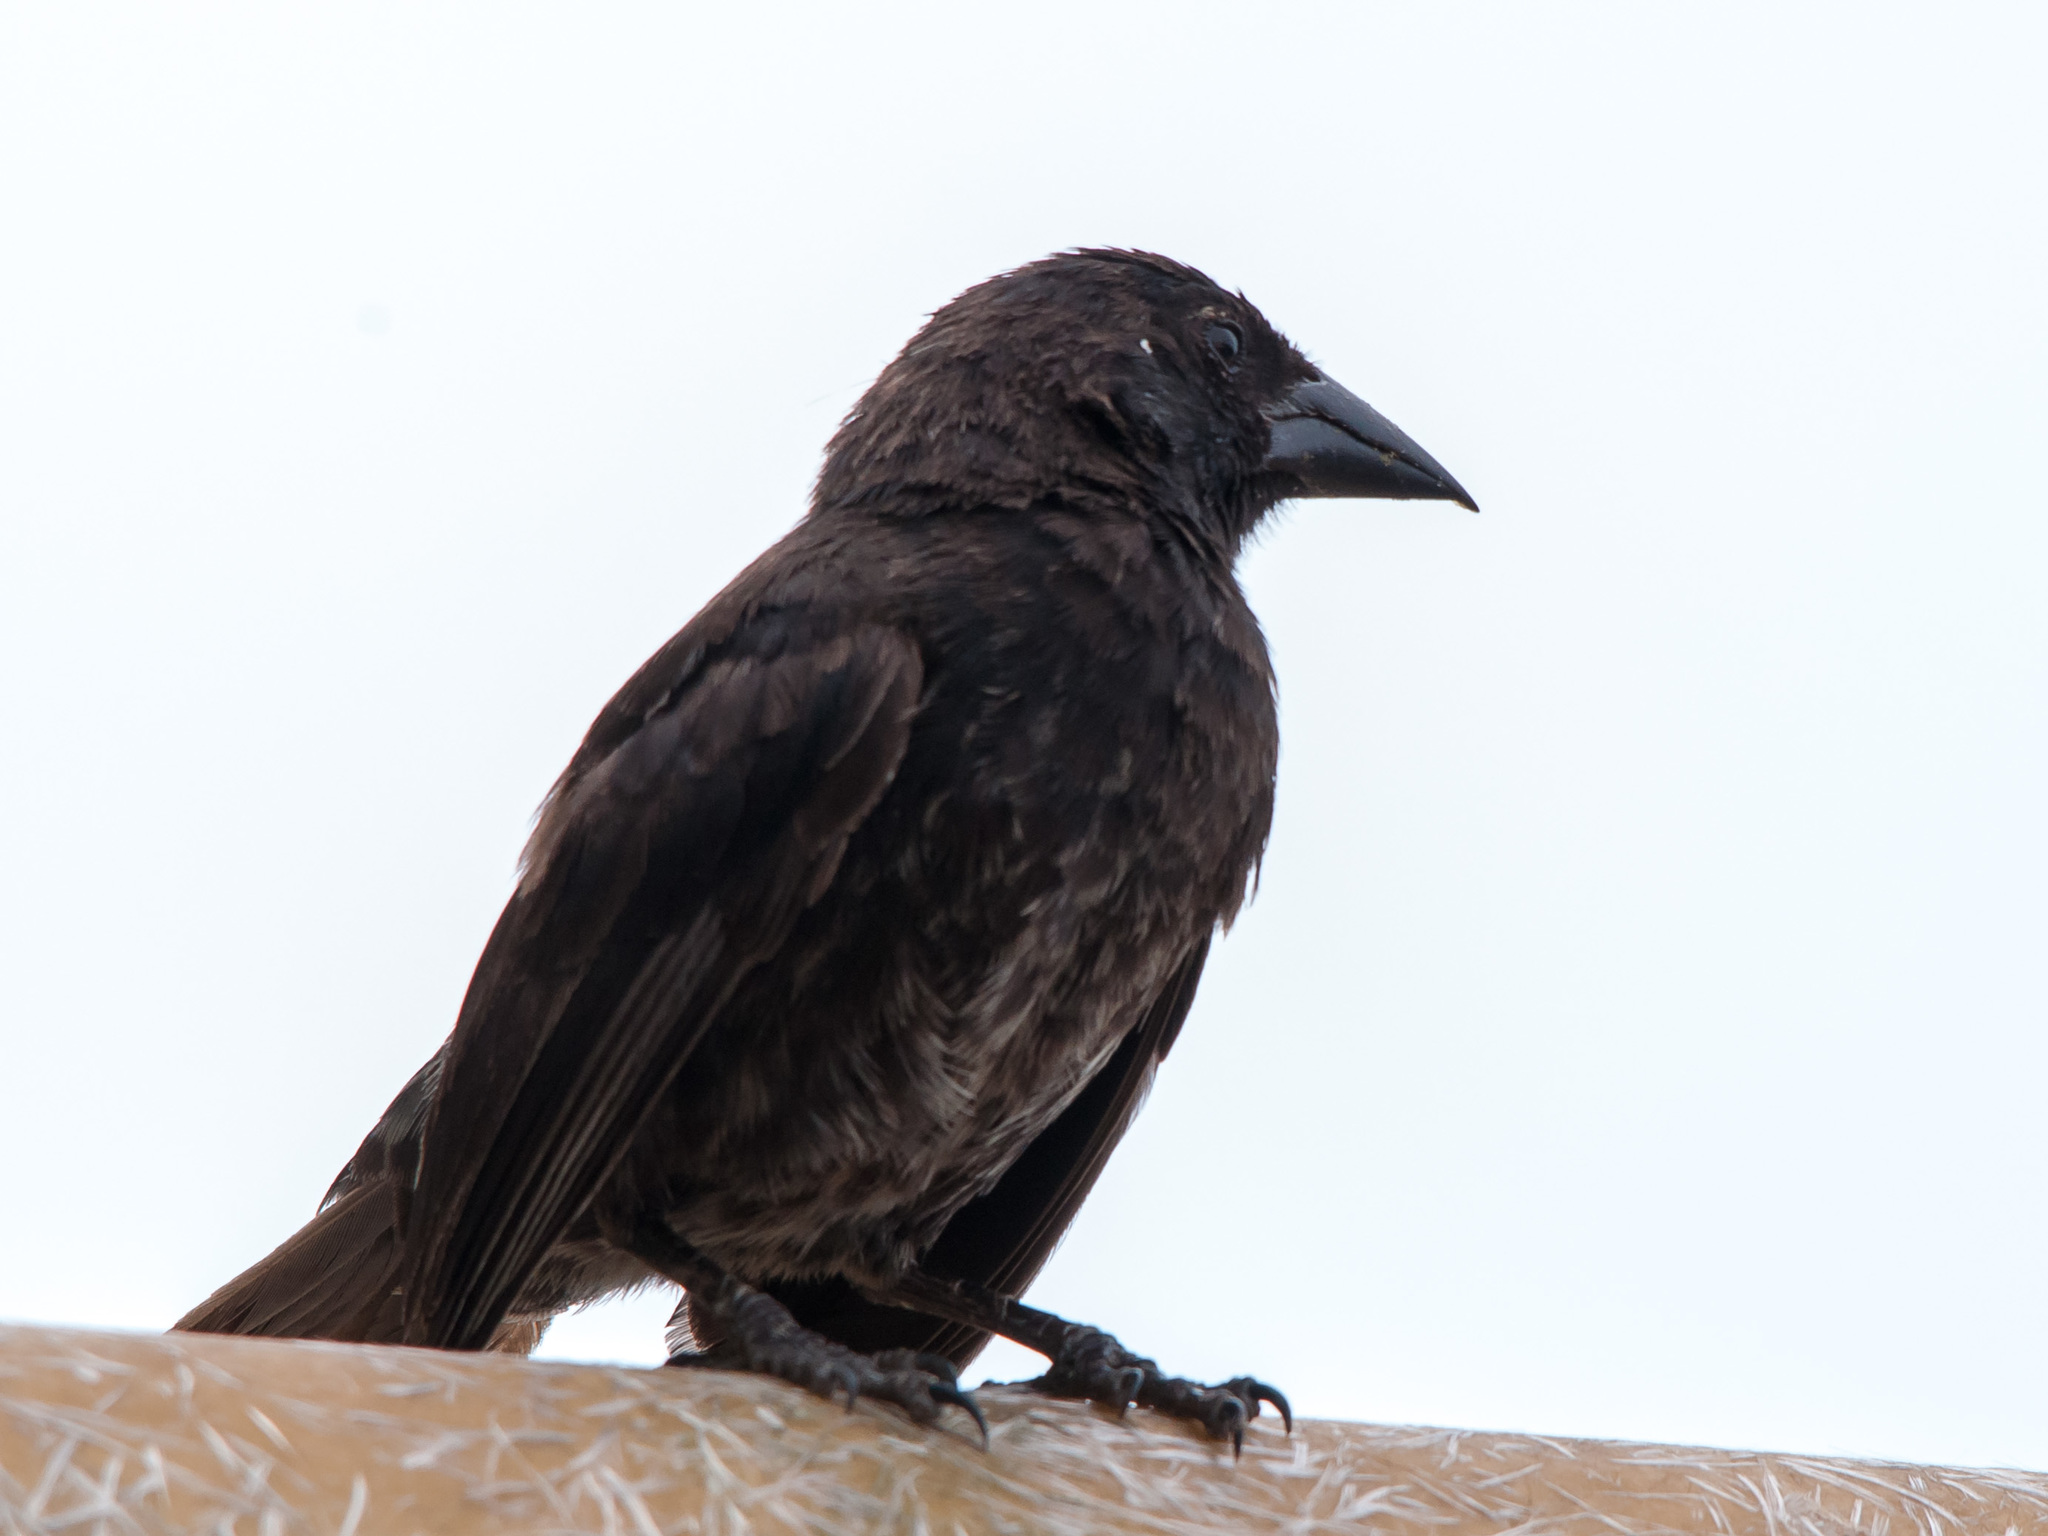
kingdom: Animalia
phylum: Chordata
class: Aves
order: Passeriformes
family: Thraupidae
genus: Geospiza
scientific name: Geospiza scandens
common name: Common cactus-finch
